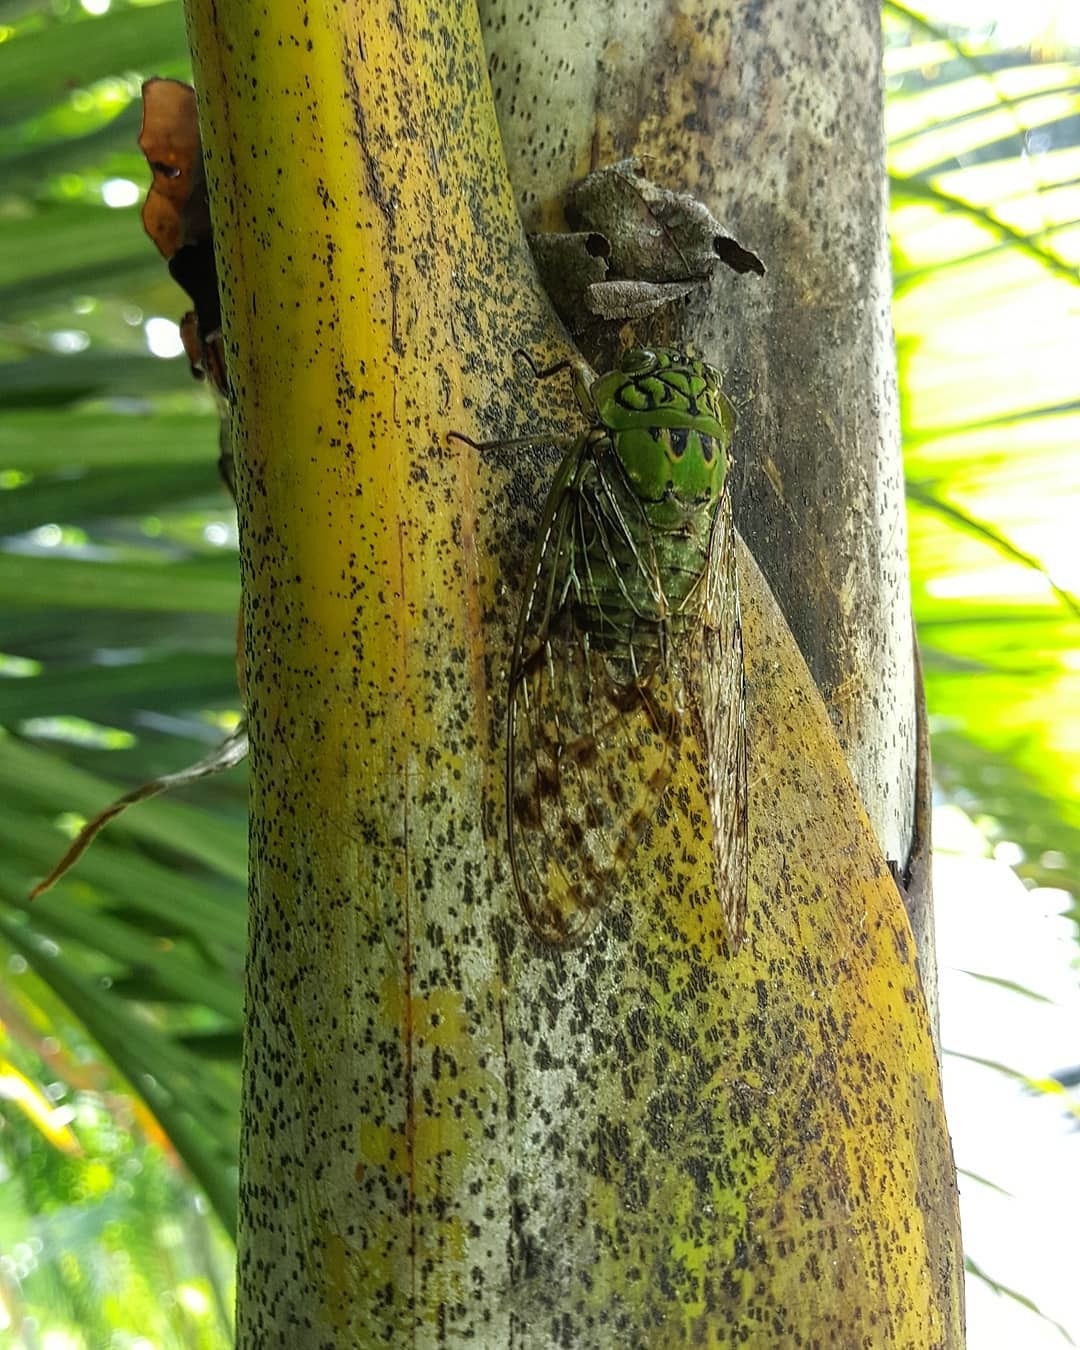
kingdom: Animalia
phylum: Arthropoda
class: Insecta
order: Hemiptera
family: Cicadidae
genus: Miranha
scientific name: Miranha imbellis
